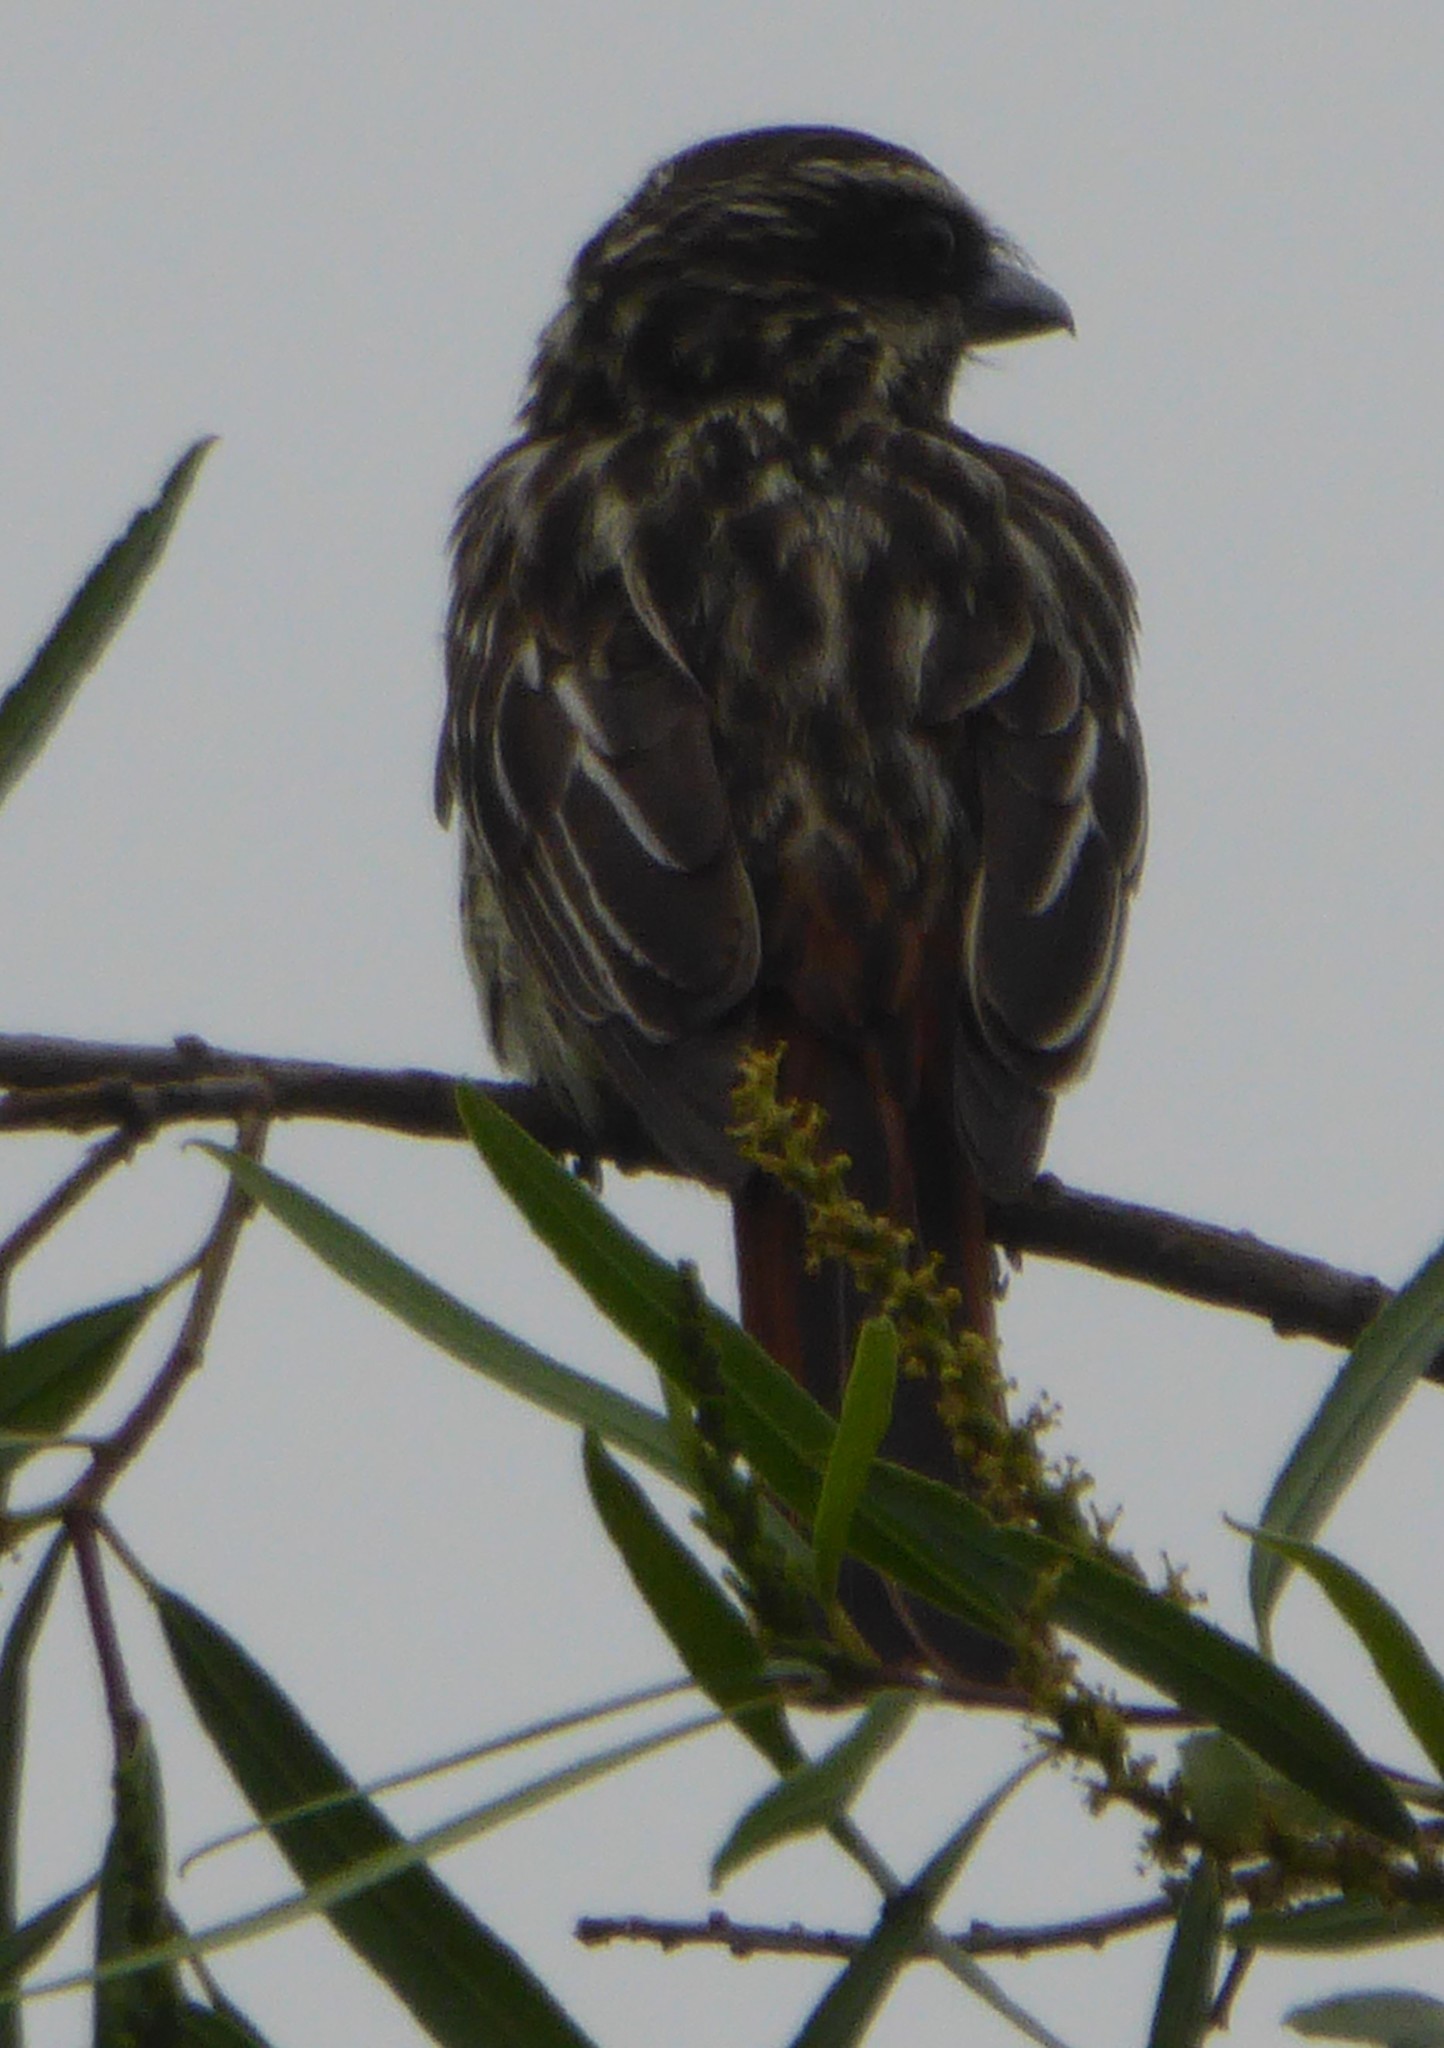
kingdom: Animalia
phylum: Chordata
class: Aves
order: Passeriformes
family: Tyrannidae
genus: Myiodynastes
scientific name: Myiodynastes maculatus
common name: Streaked flycatcher
